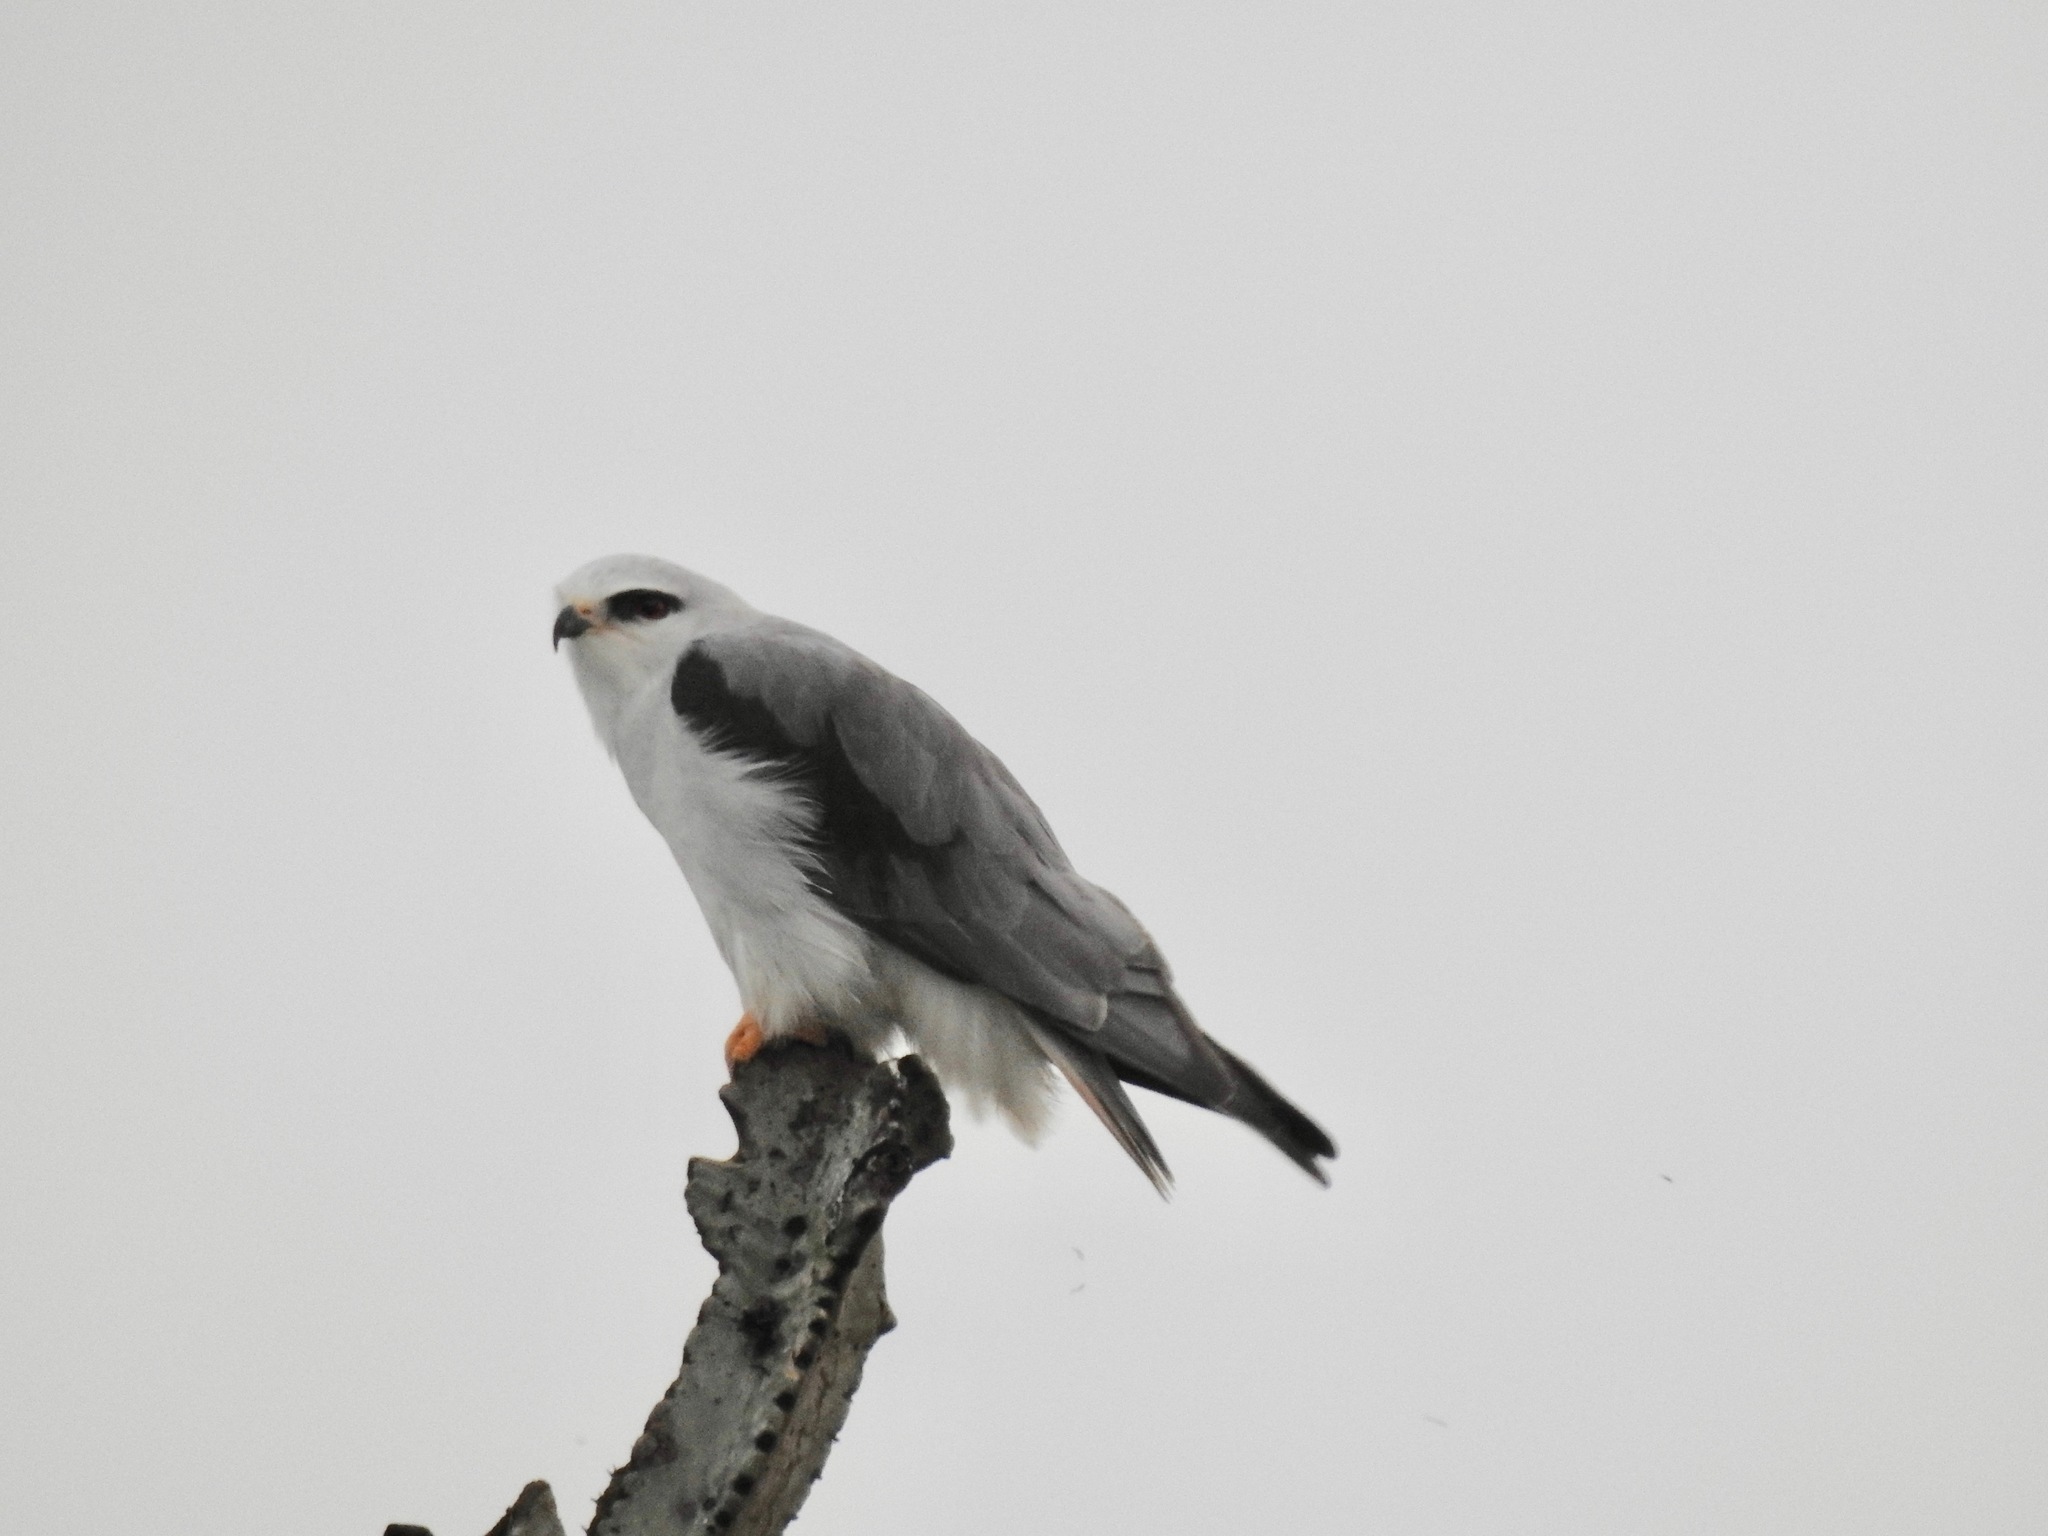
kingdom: Animalia
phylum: Chordata
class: Aves
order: Accipitriformes
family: Accipitridae
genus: Elanus
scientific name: Elanus caeruleus
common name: Black-winged kite
